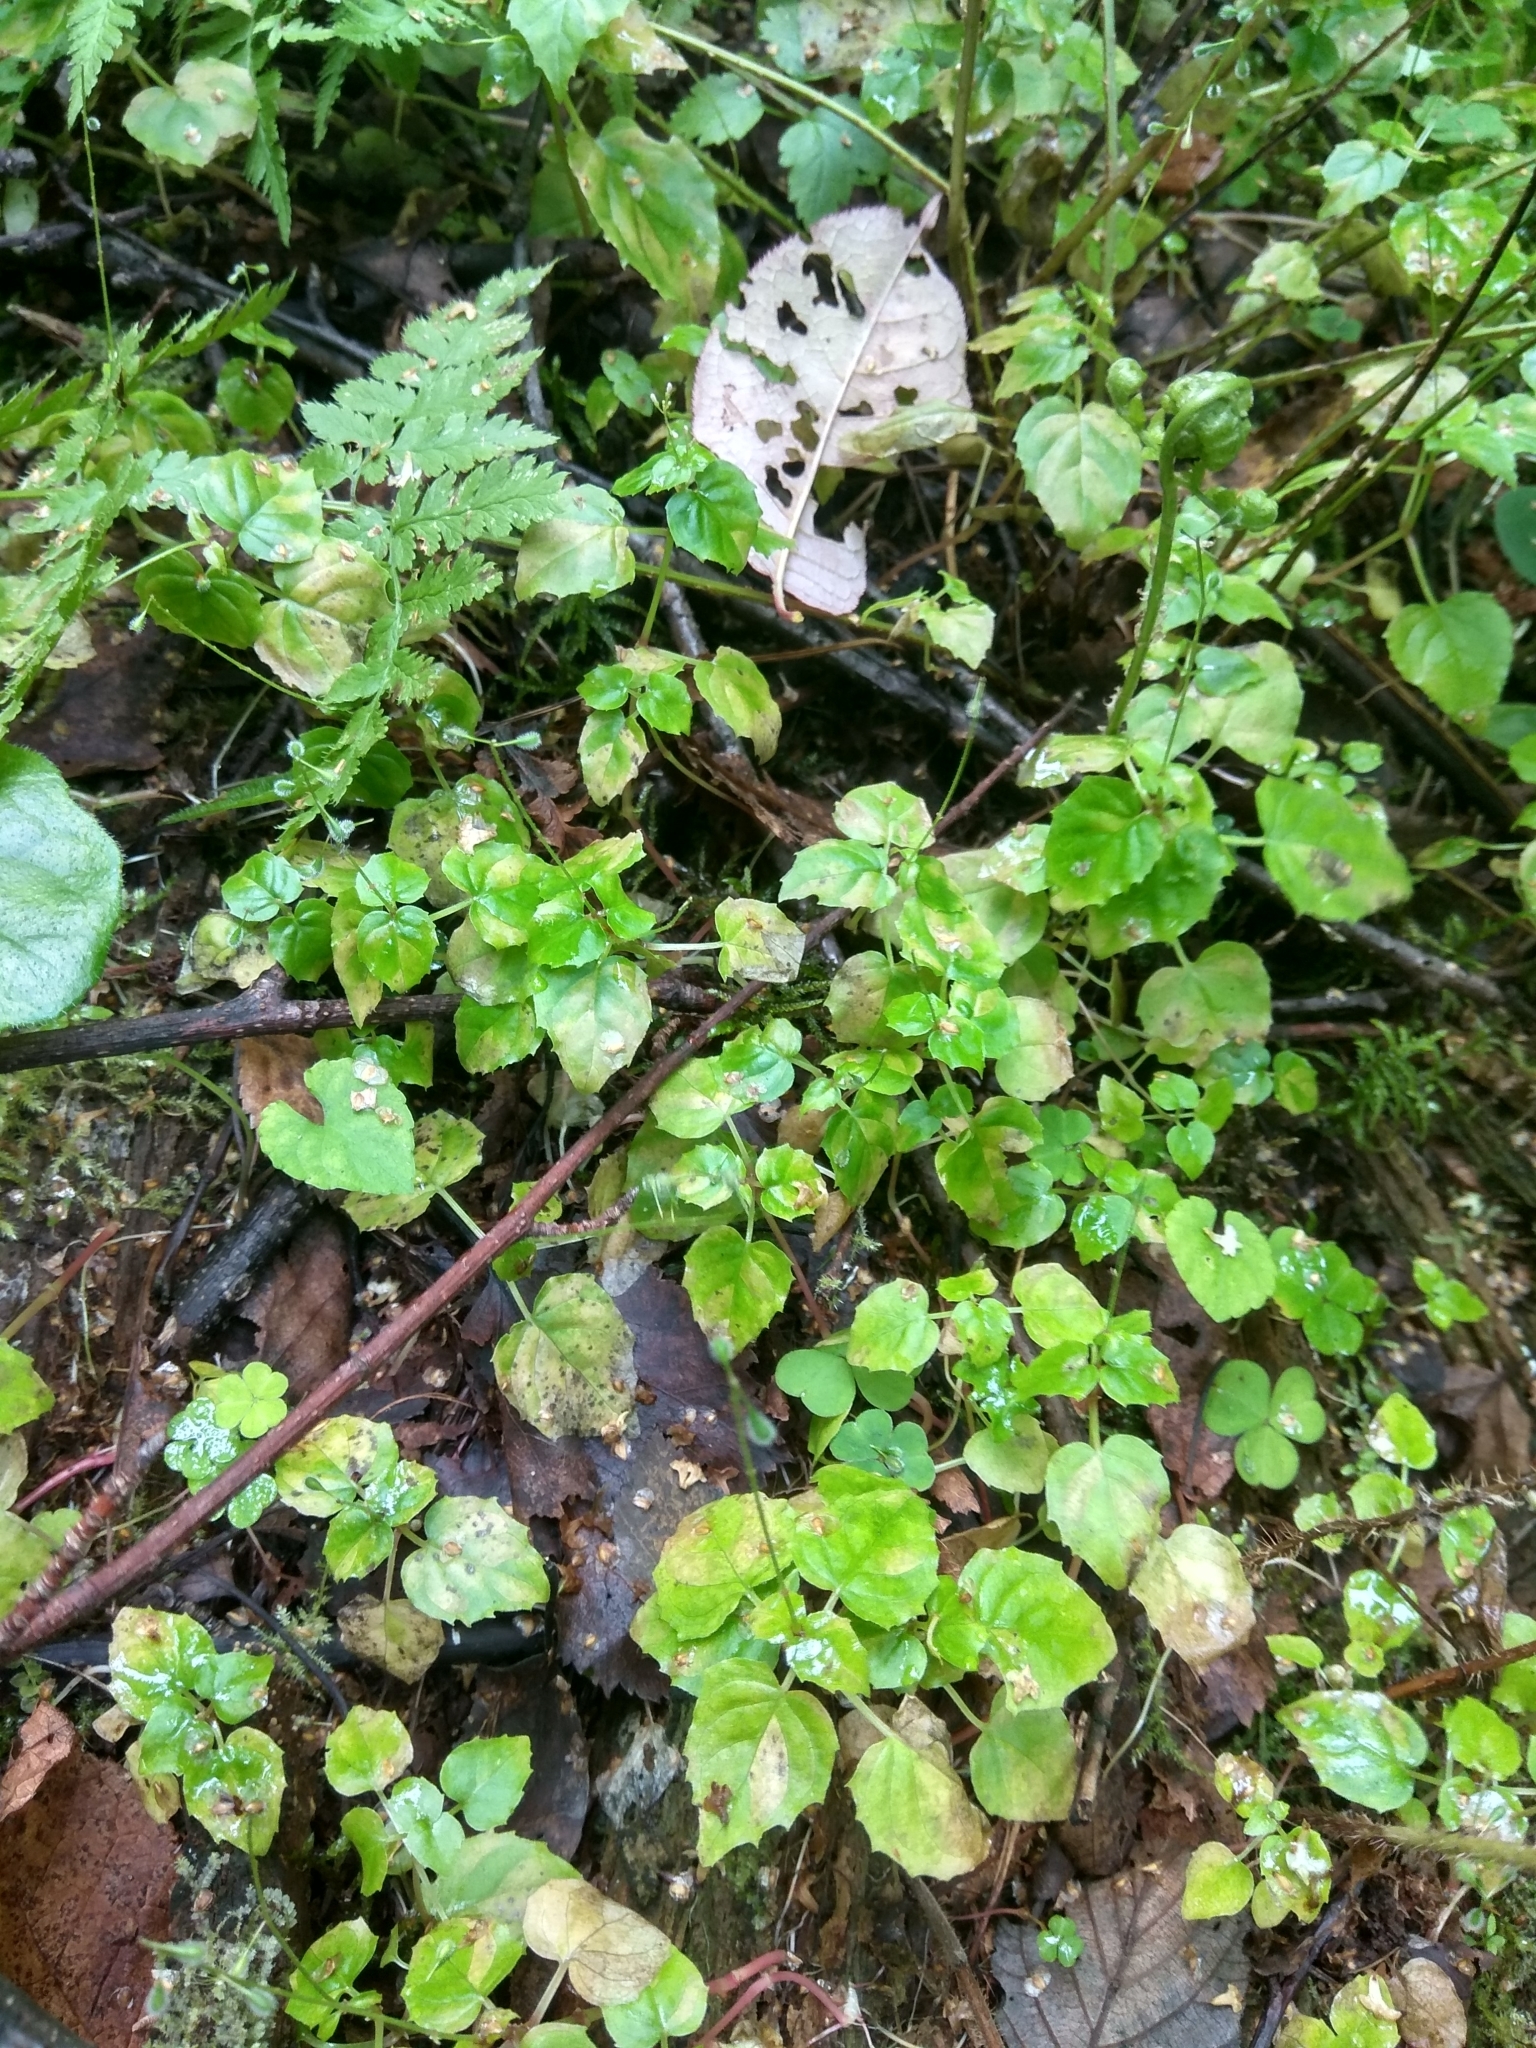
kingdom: Plantae
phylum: Tracheophyta
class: Magnoliopsida
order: Myrtales
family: Onagraceae
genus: Circaea
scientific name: Circaea alpina
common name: Alpine enchanter's-nightshade
